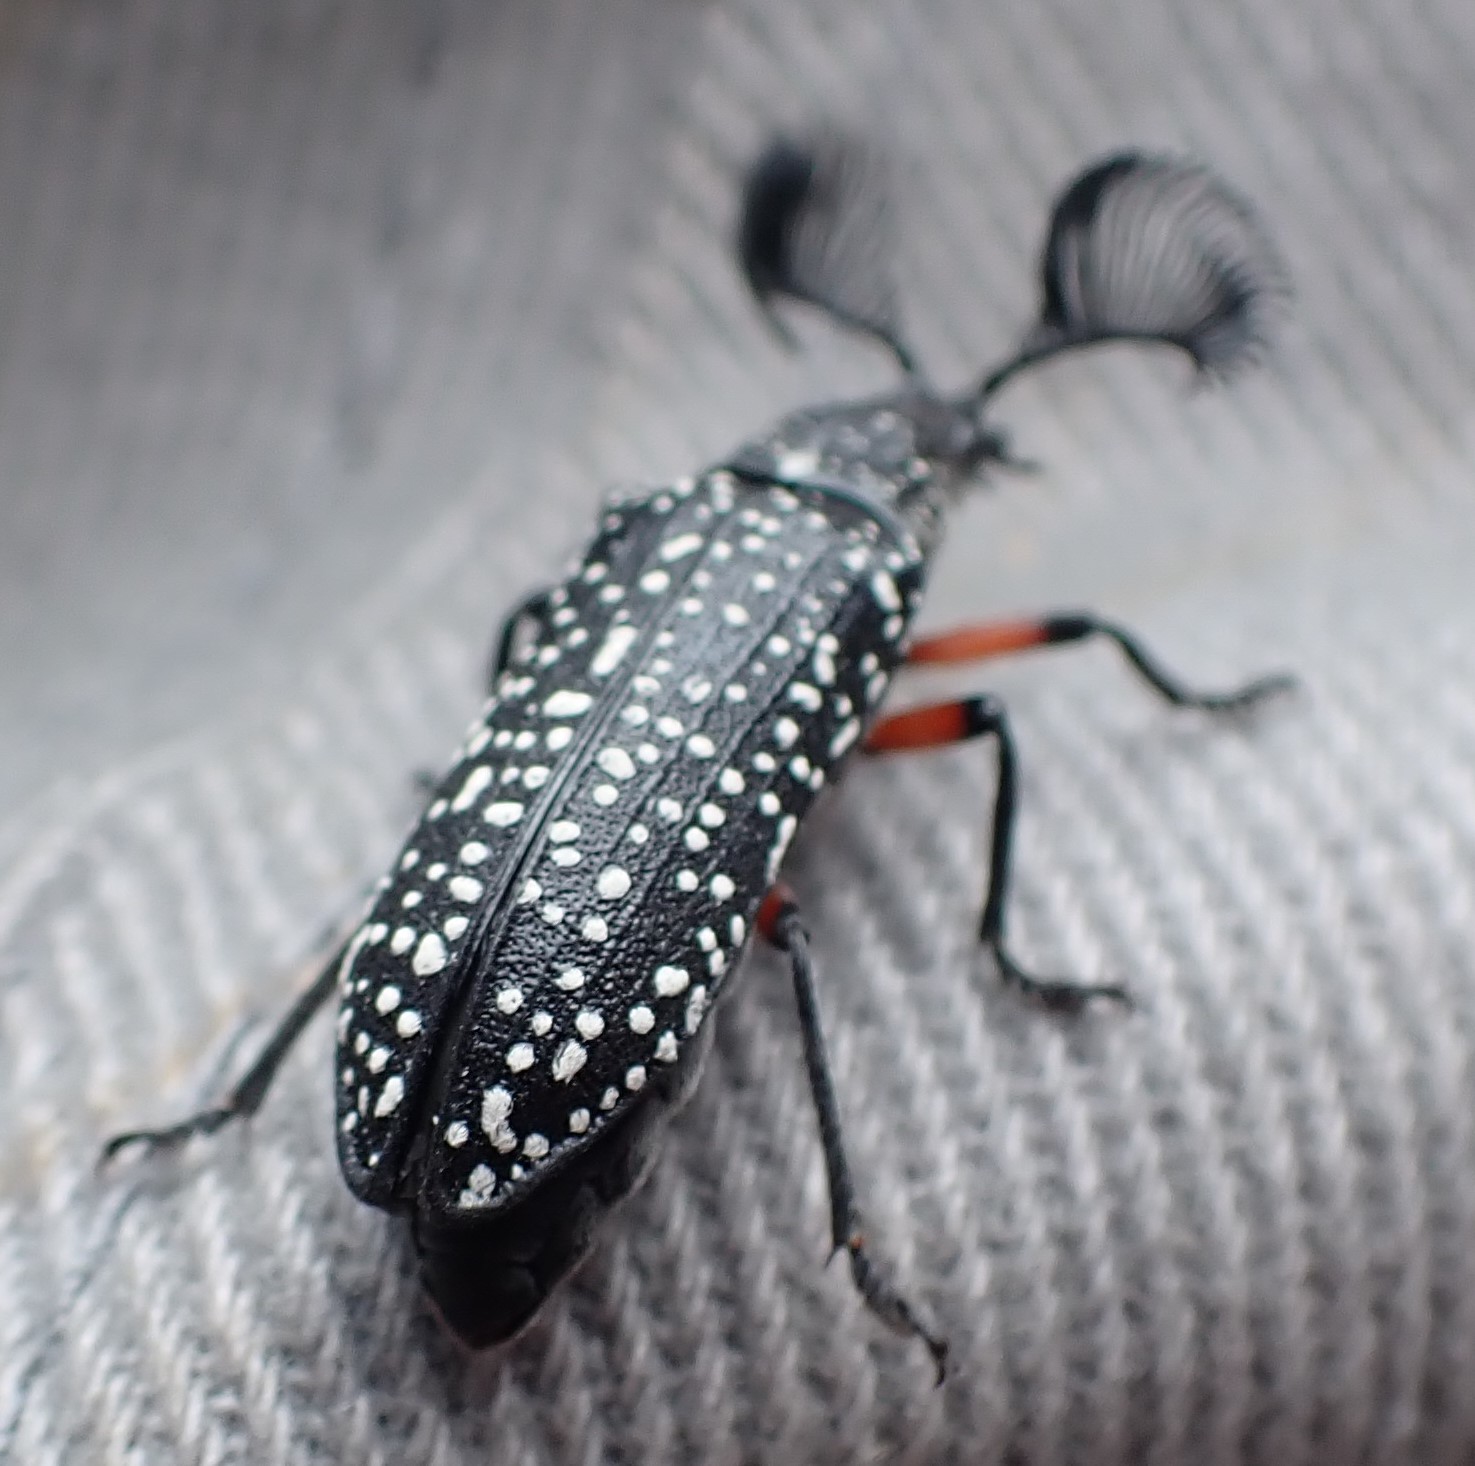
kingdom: Animalia
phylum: Arthropoda
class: Insecta
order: Coleoptera
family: Rhipiceridae
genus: Rhipicera
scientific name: Rhipicera femorata
